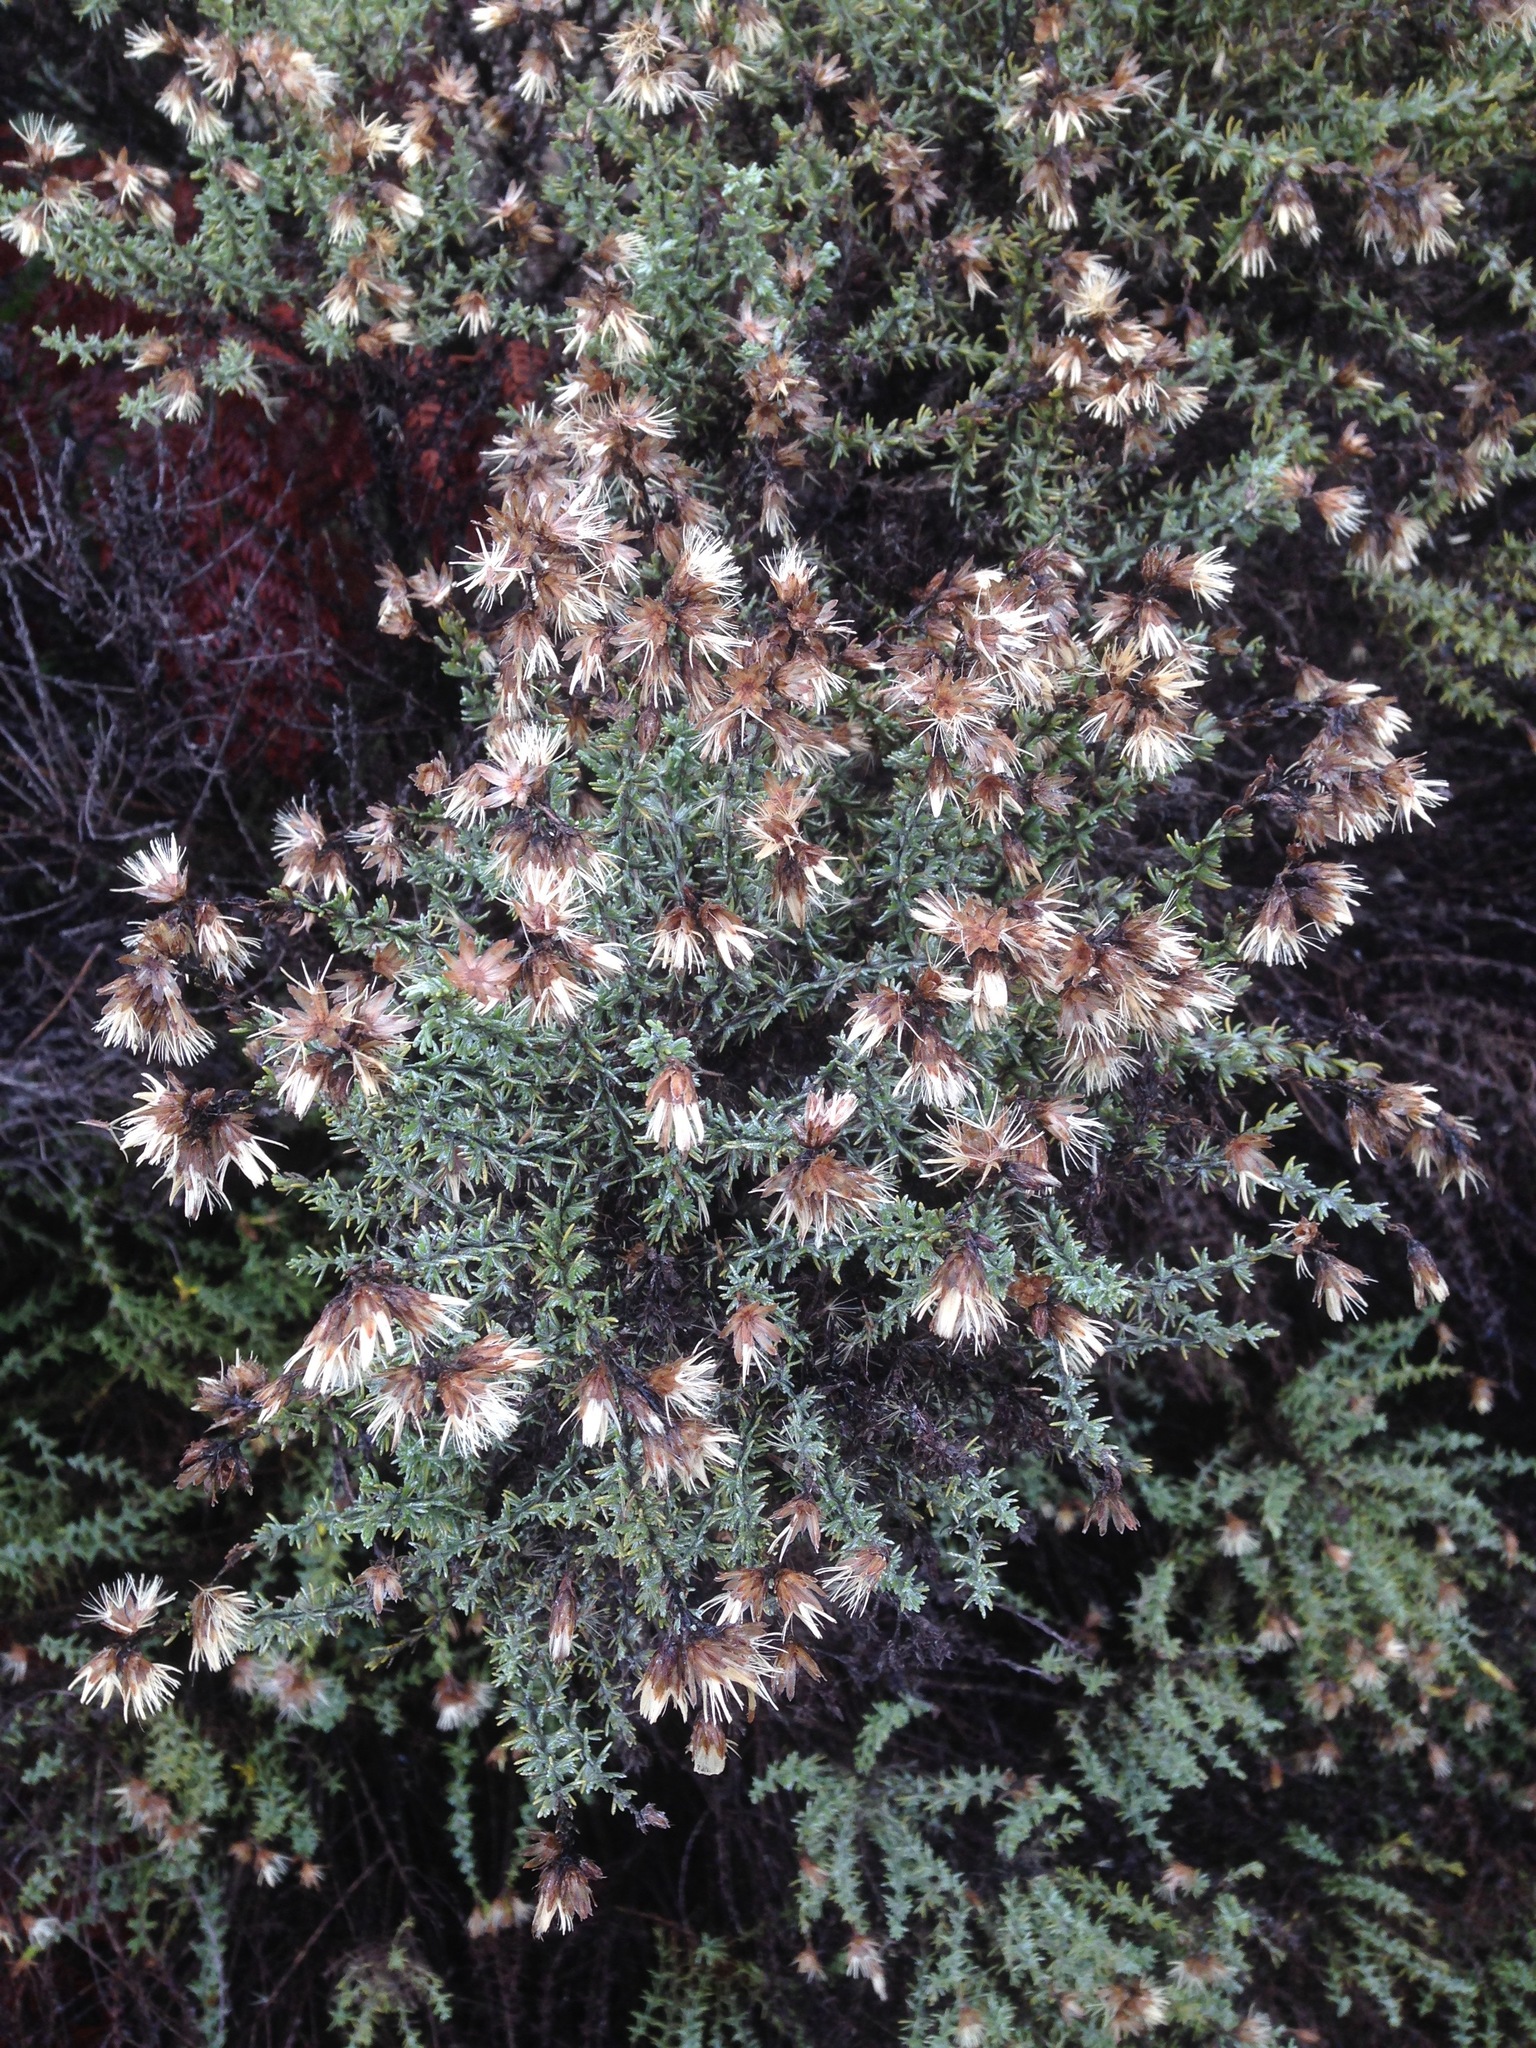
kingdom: Plantae
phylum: Tracheophyta
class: Magnoliopsida
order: Asterales
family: Asteraceae
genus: Ericameria
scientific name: Ericameria ericoides
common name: California goldenbush
